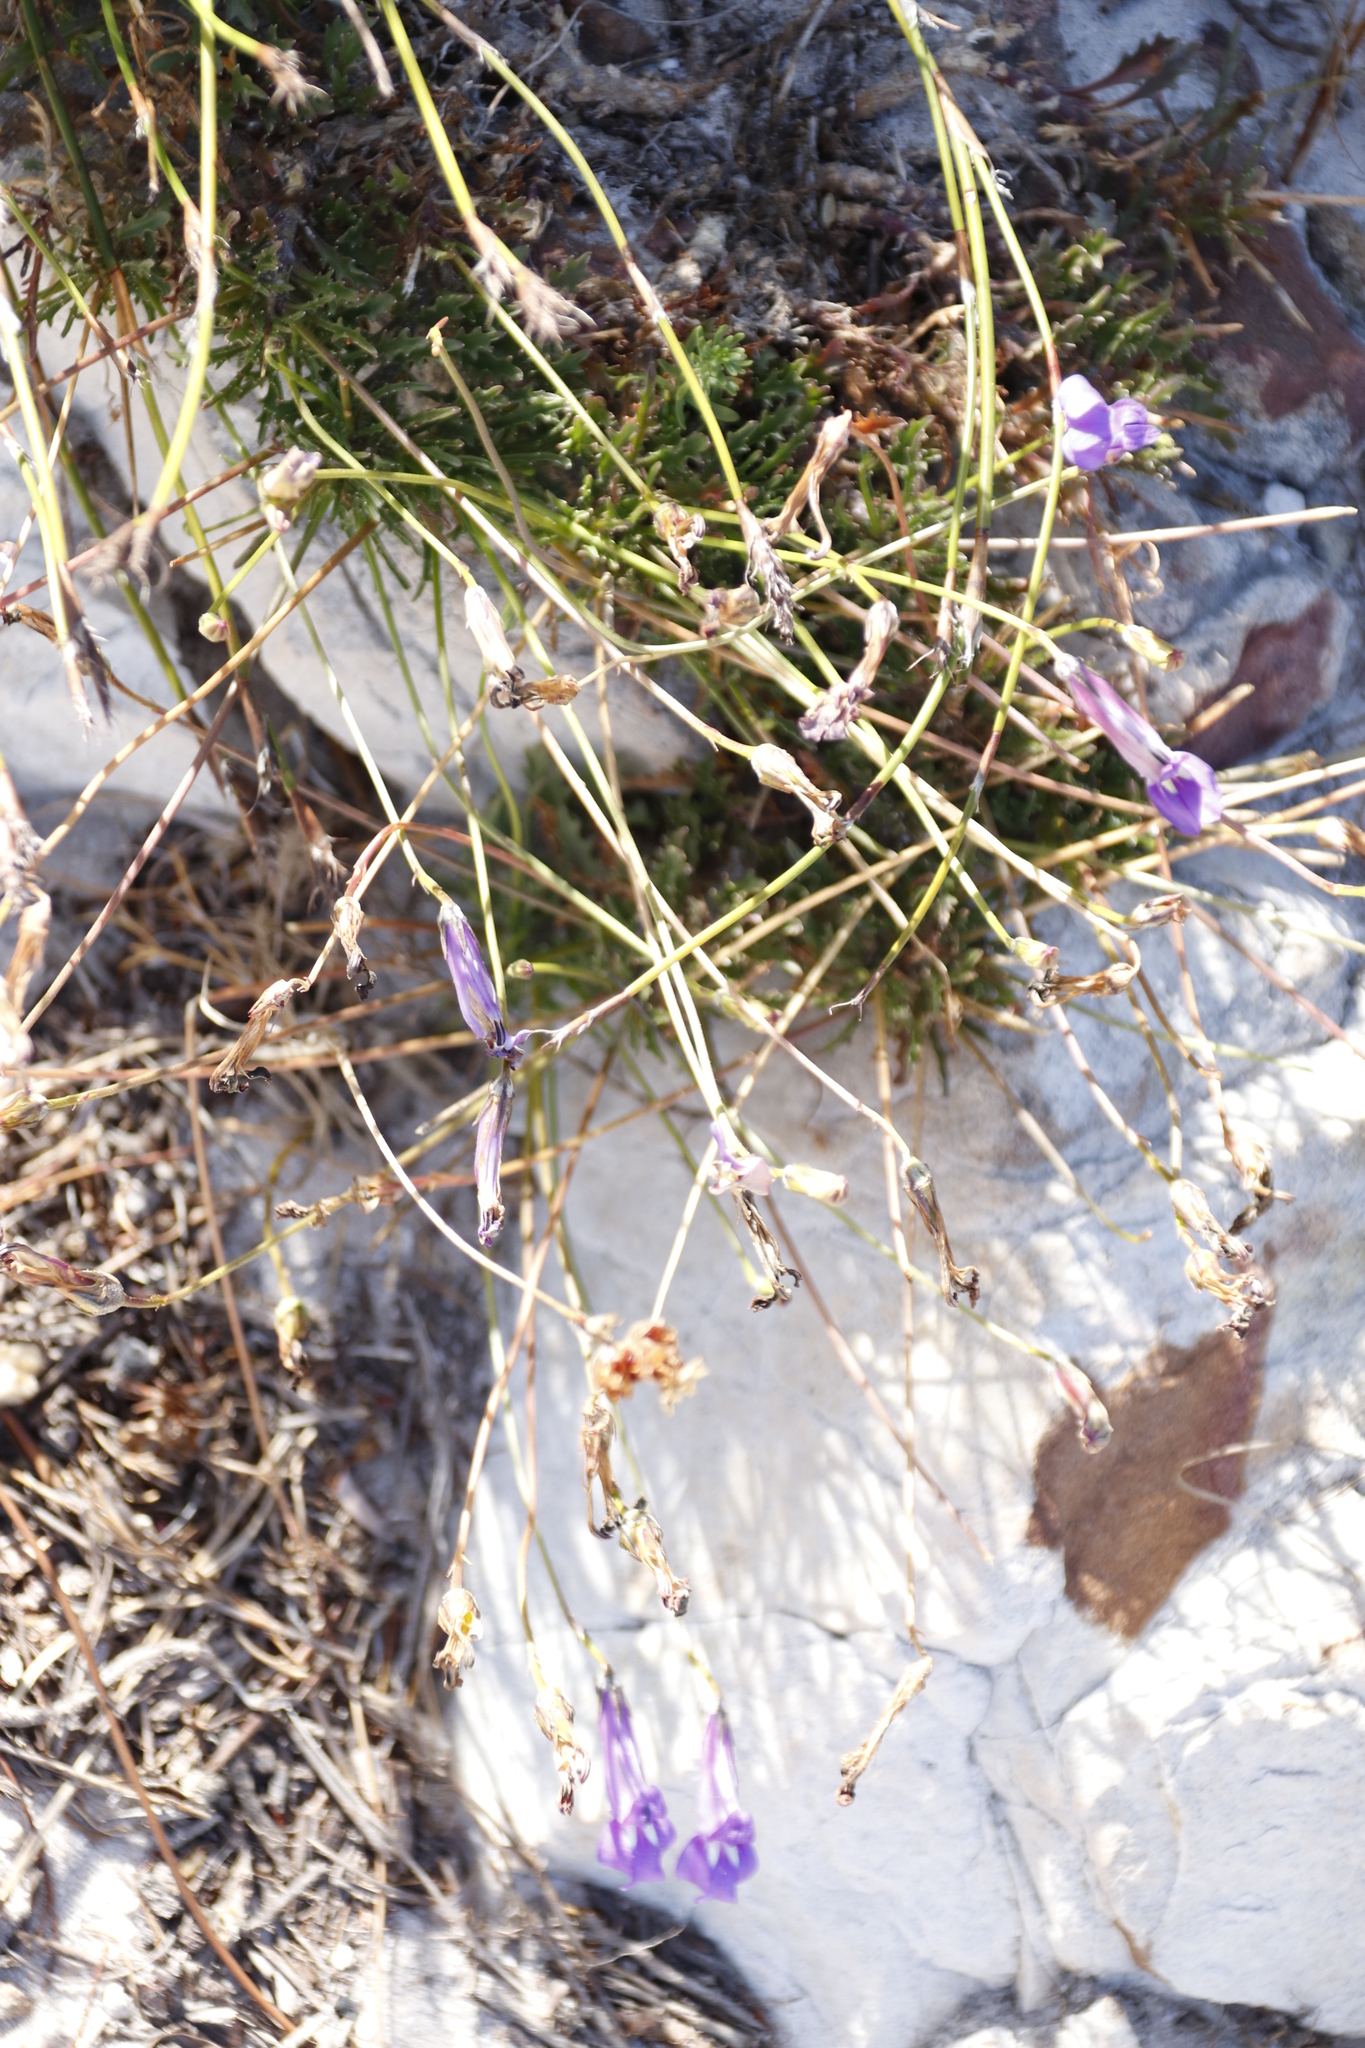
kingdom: Plantae
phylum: Tracheophyta
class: Magnoliopsida
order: Asterales
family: Campanulaceae
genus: Lobelia
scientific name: Lobelia coronopifolia
